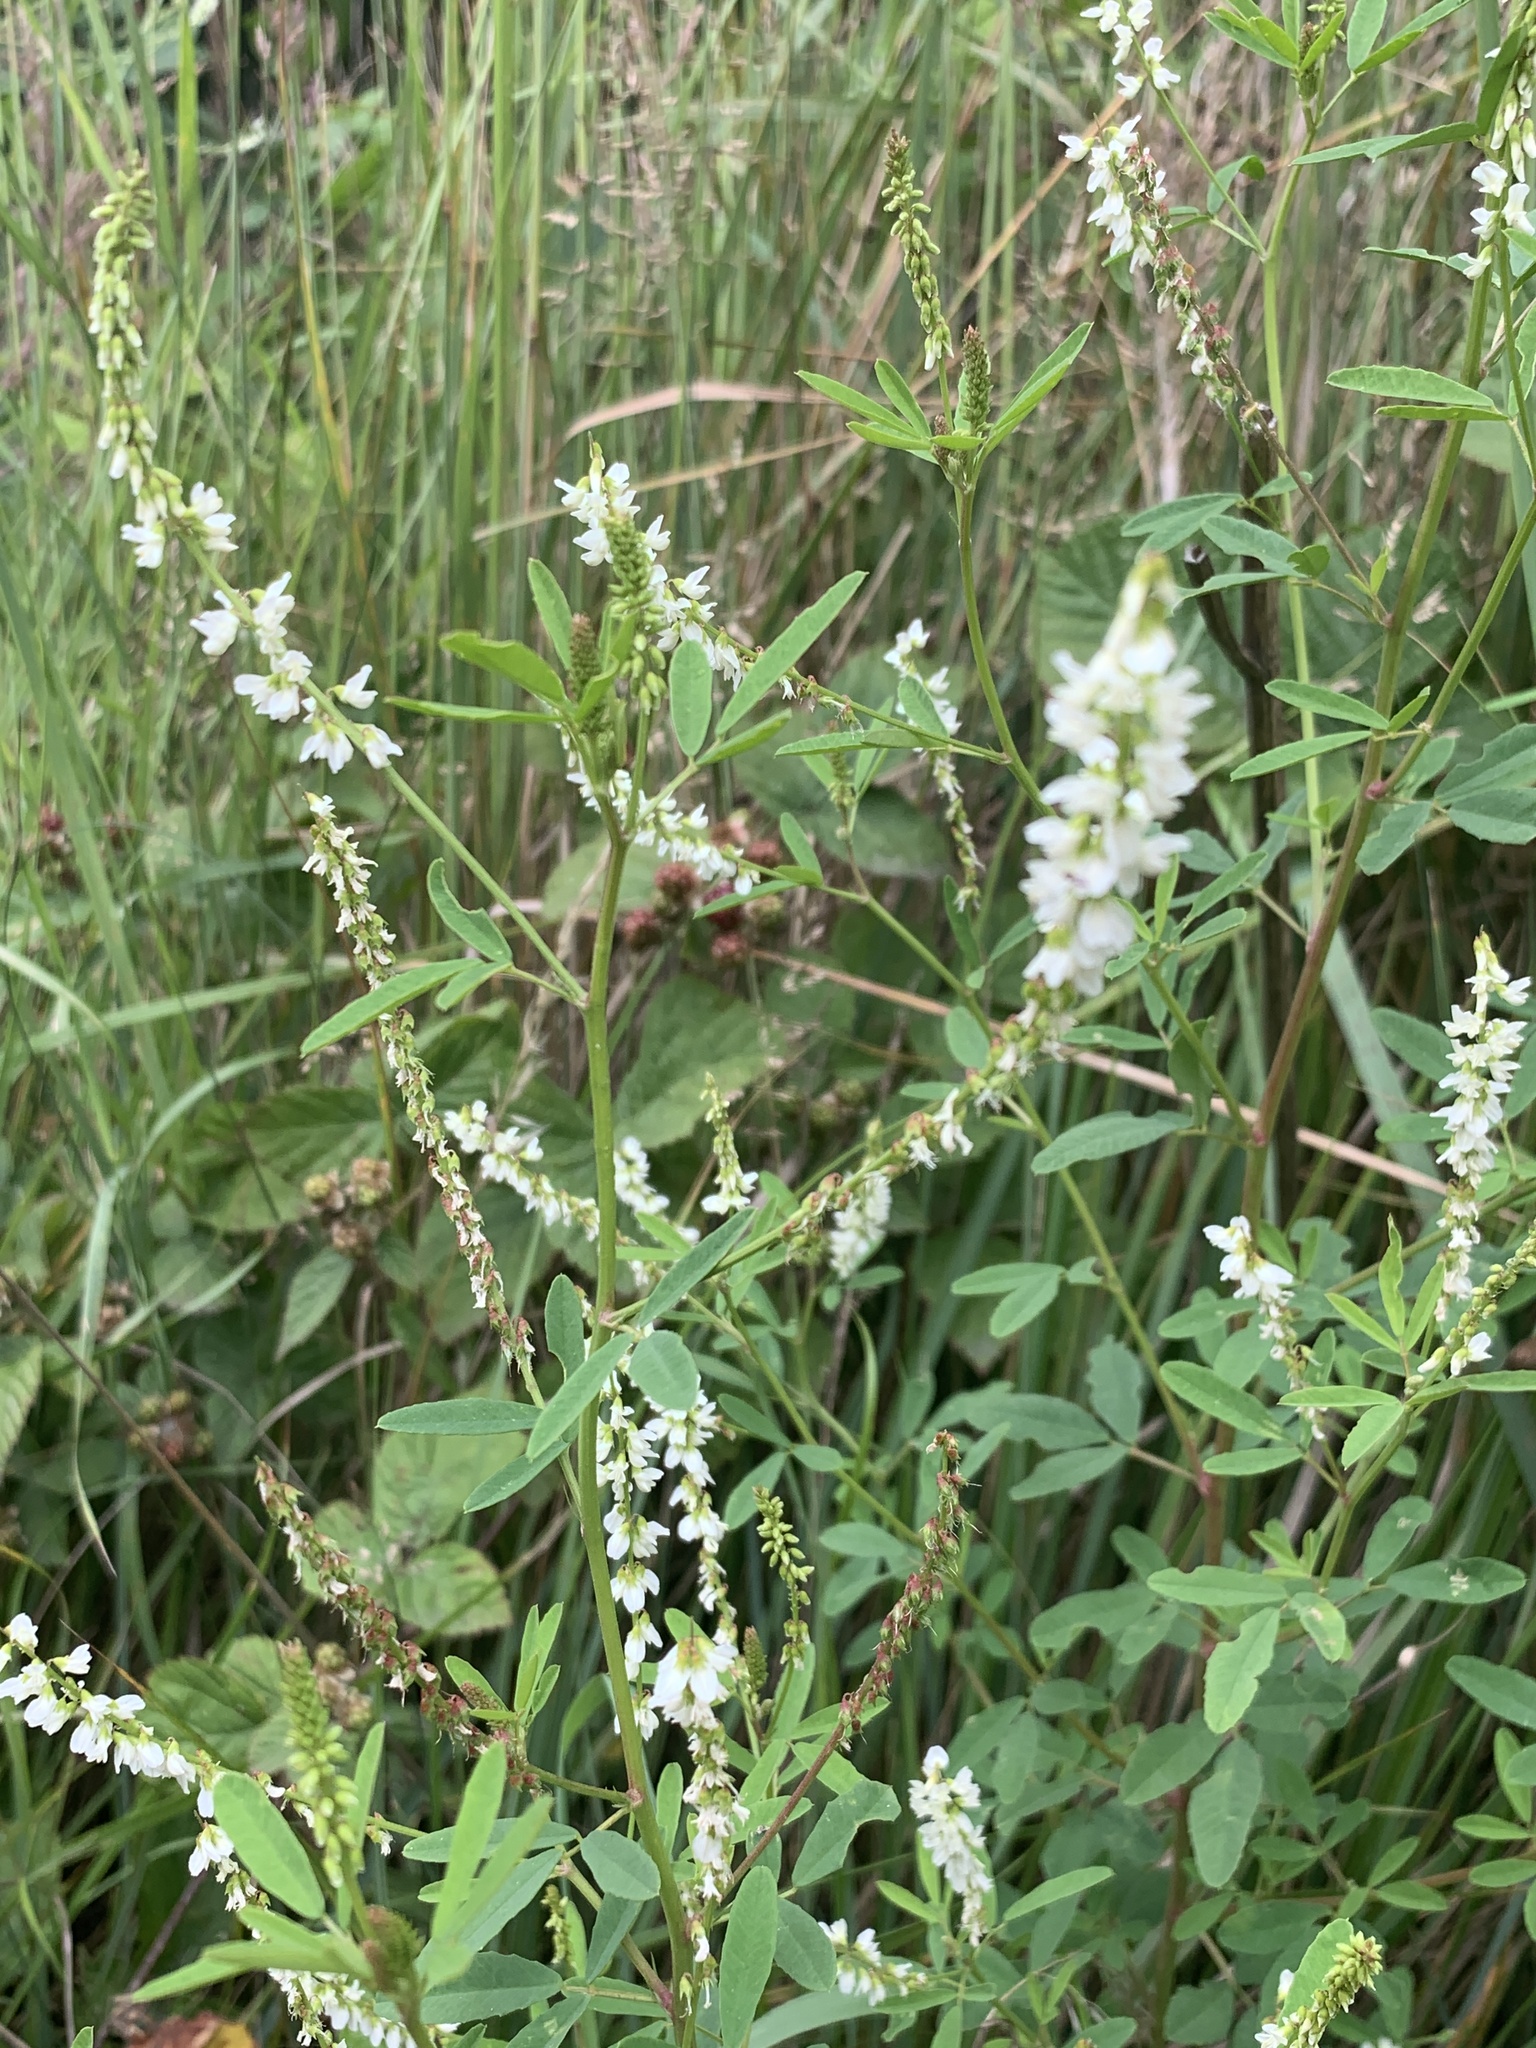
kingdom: Plantae
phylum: Tracheophyta
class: Magnoliopsida
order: Fabales
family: Fabaceae
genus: Melilotus
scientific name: Melilotus albus
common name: White melilot
